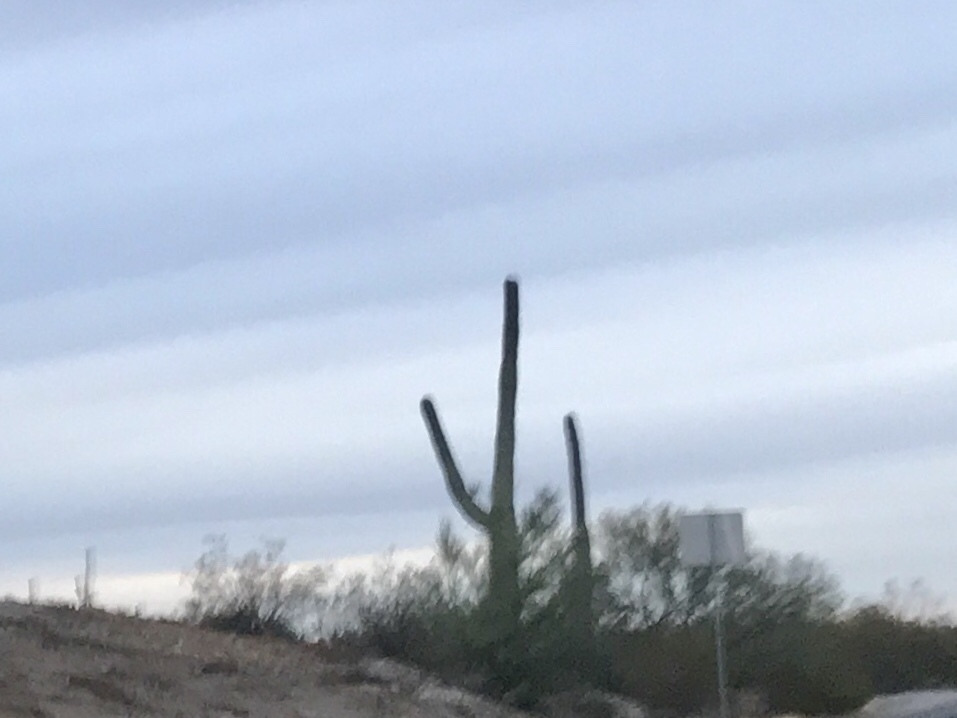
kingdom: Plantae
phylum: Tracheophyta
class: Magnoliopsida
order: Caryophyllales
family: Cactaceae
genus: Carnegiea
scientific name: Carnegiea gigantea
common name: Saguaro
